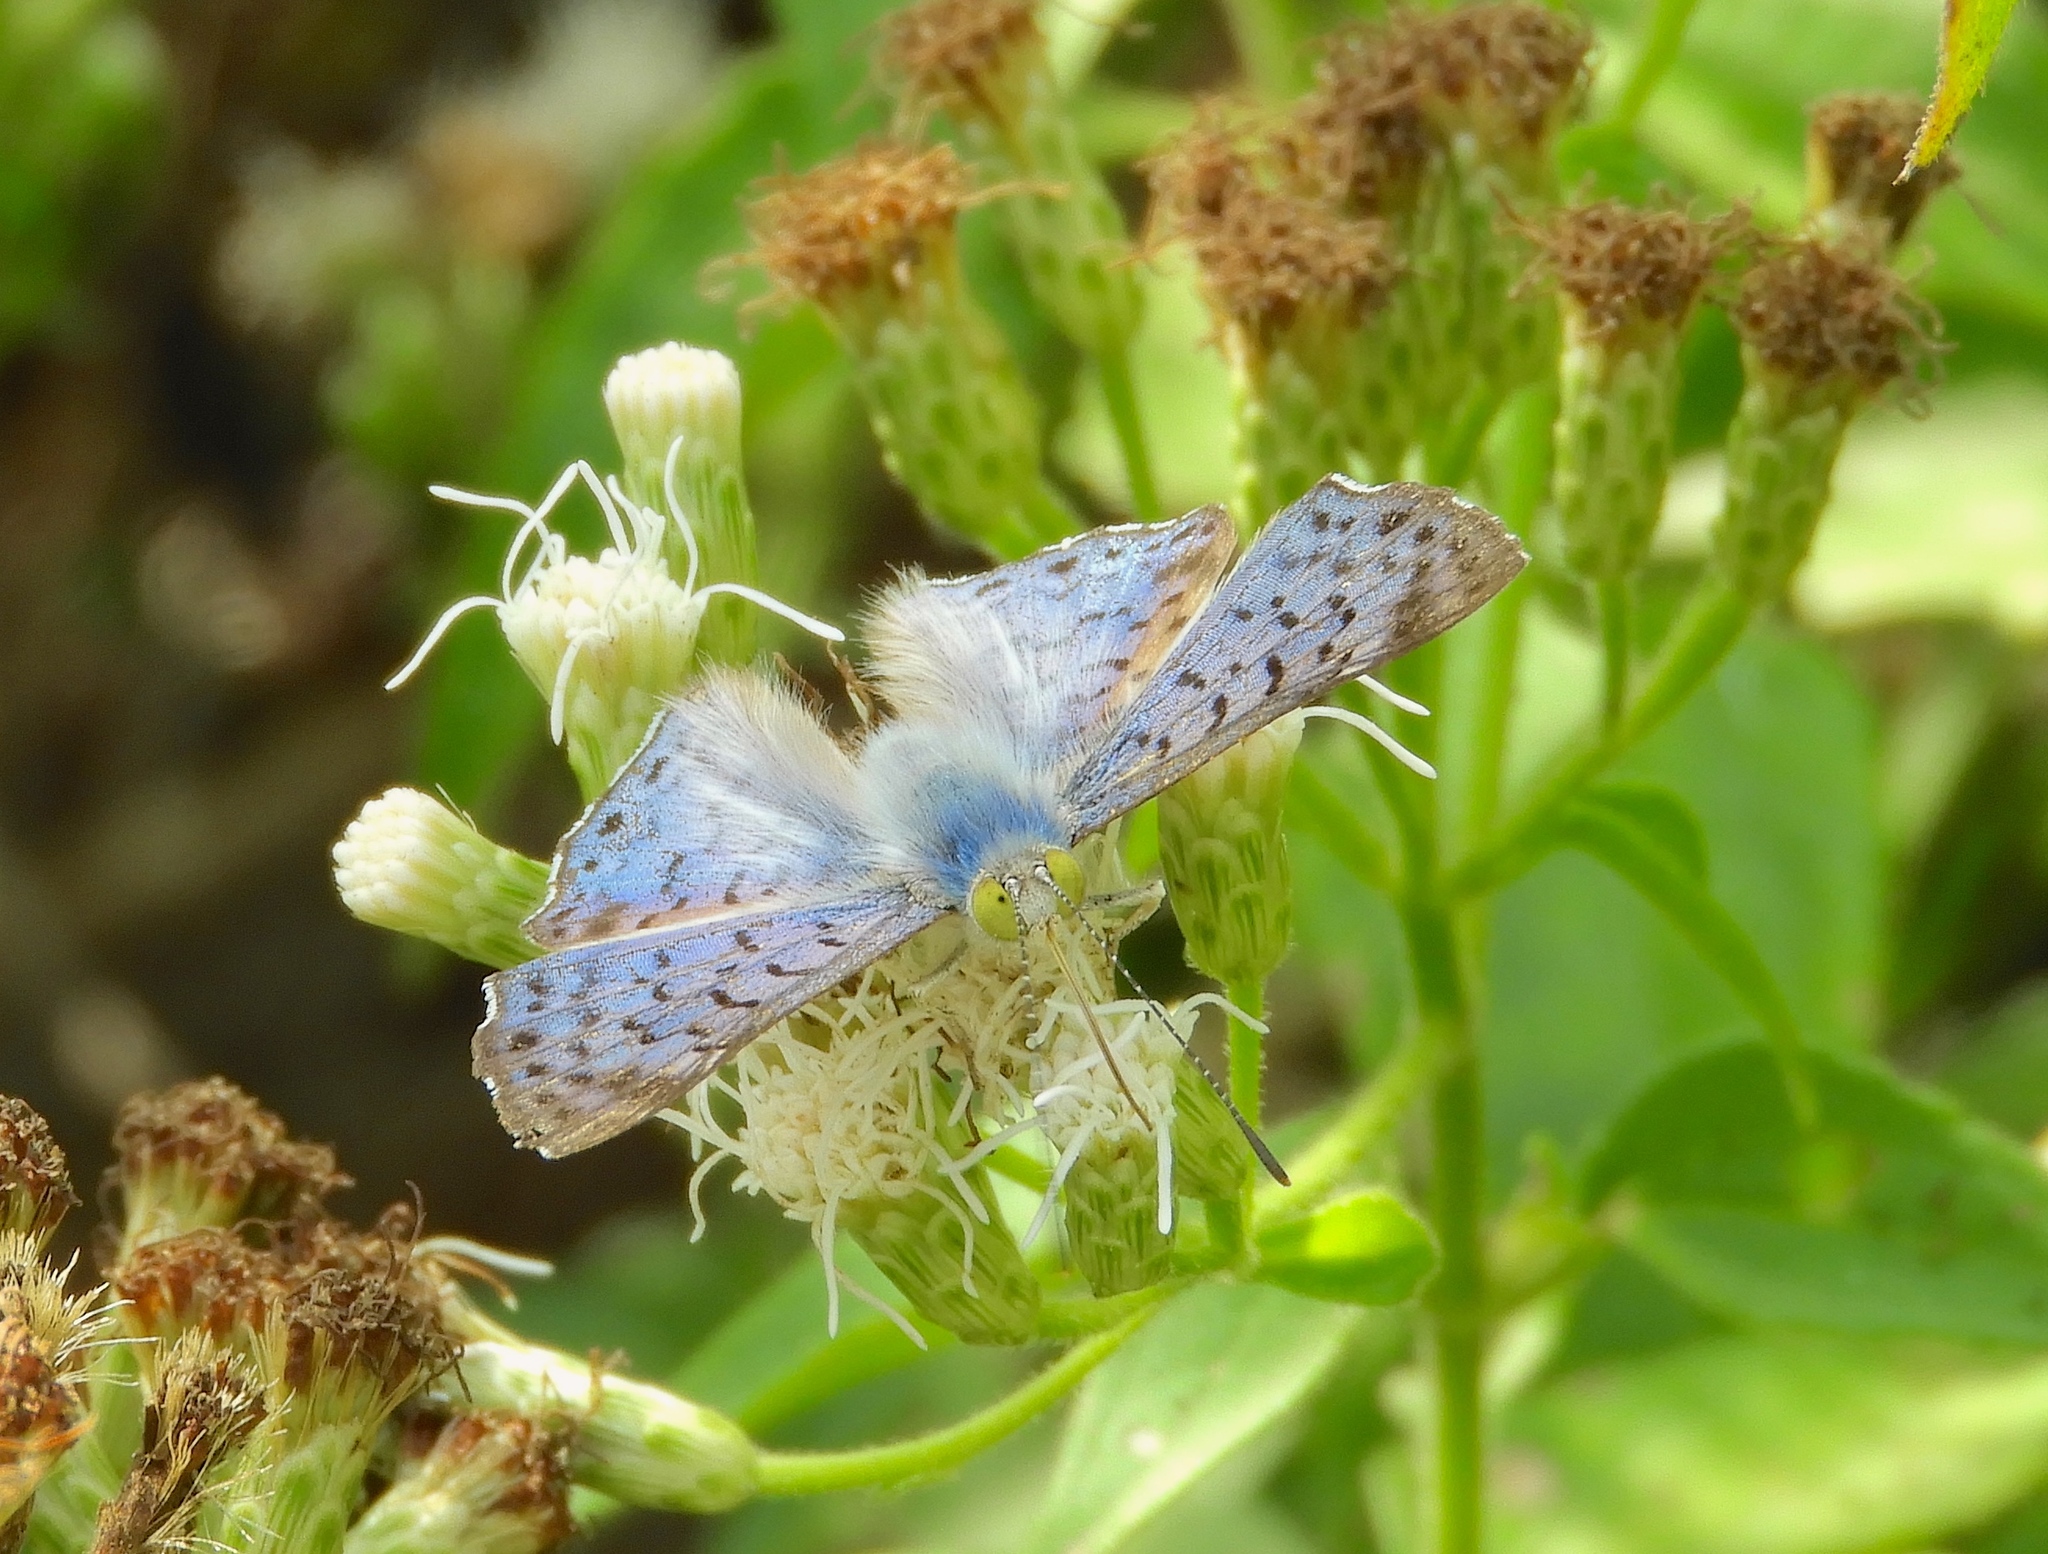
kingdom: Animalia
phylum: Arthropoda
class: Insecta
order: Lepidoptera
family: Riodinidae
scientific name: Riodinidae
